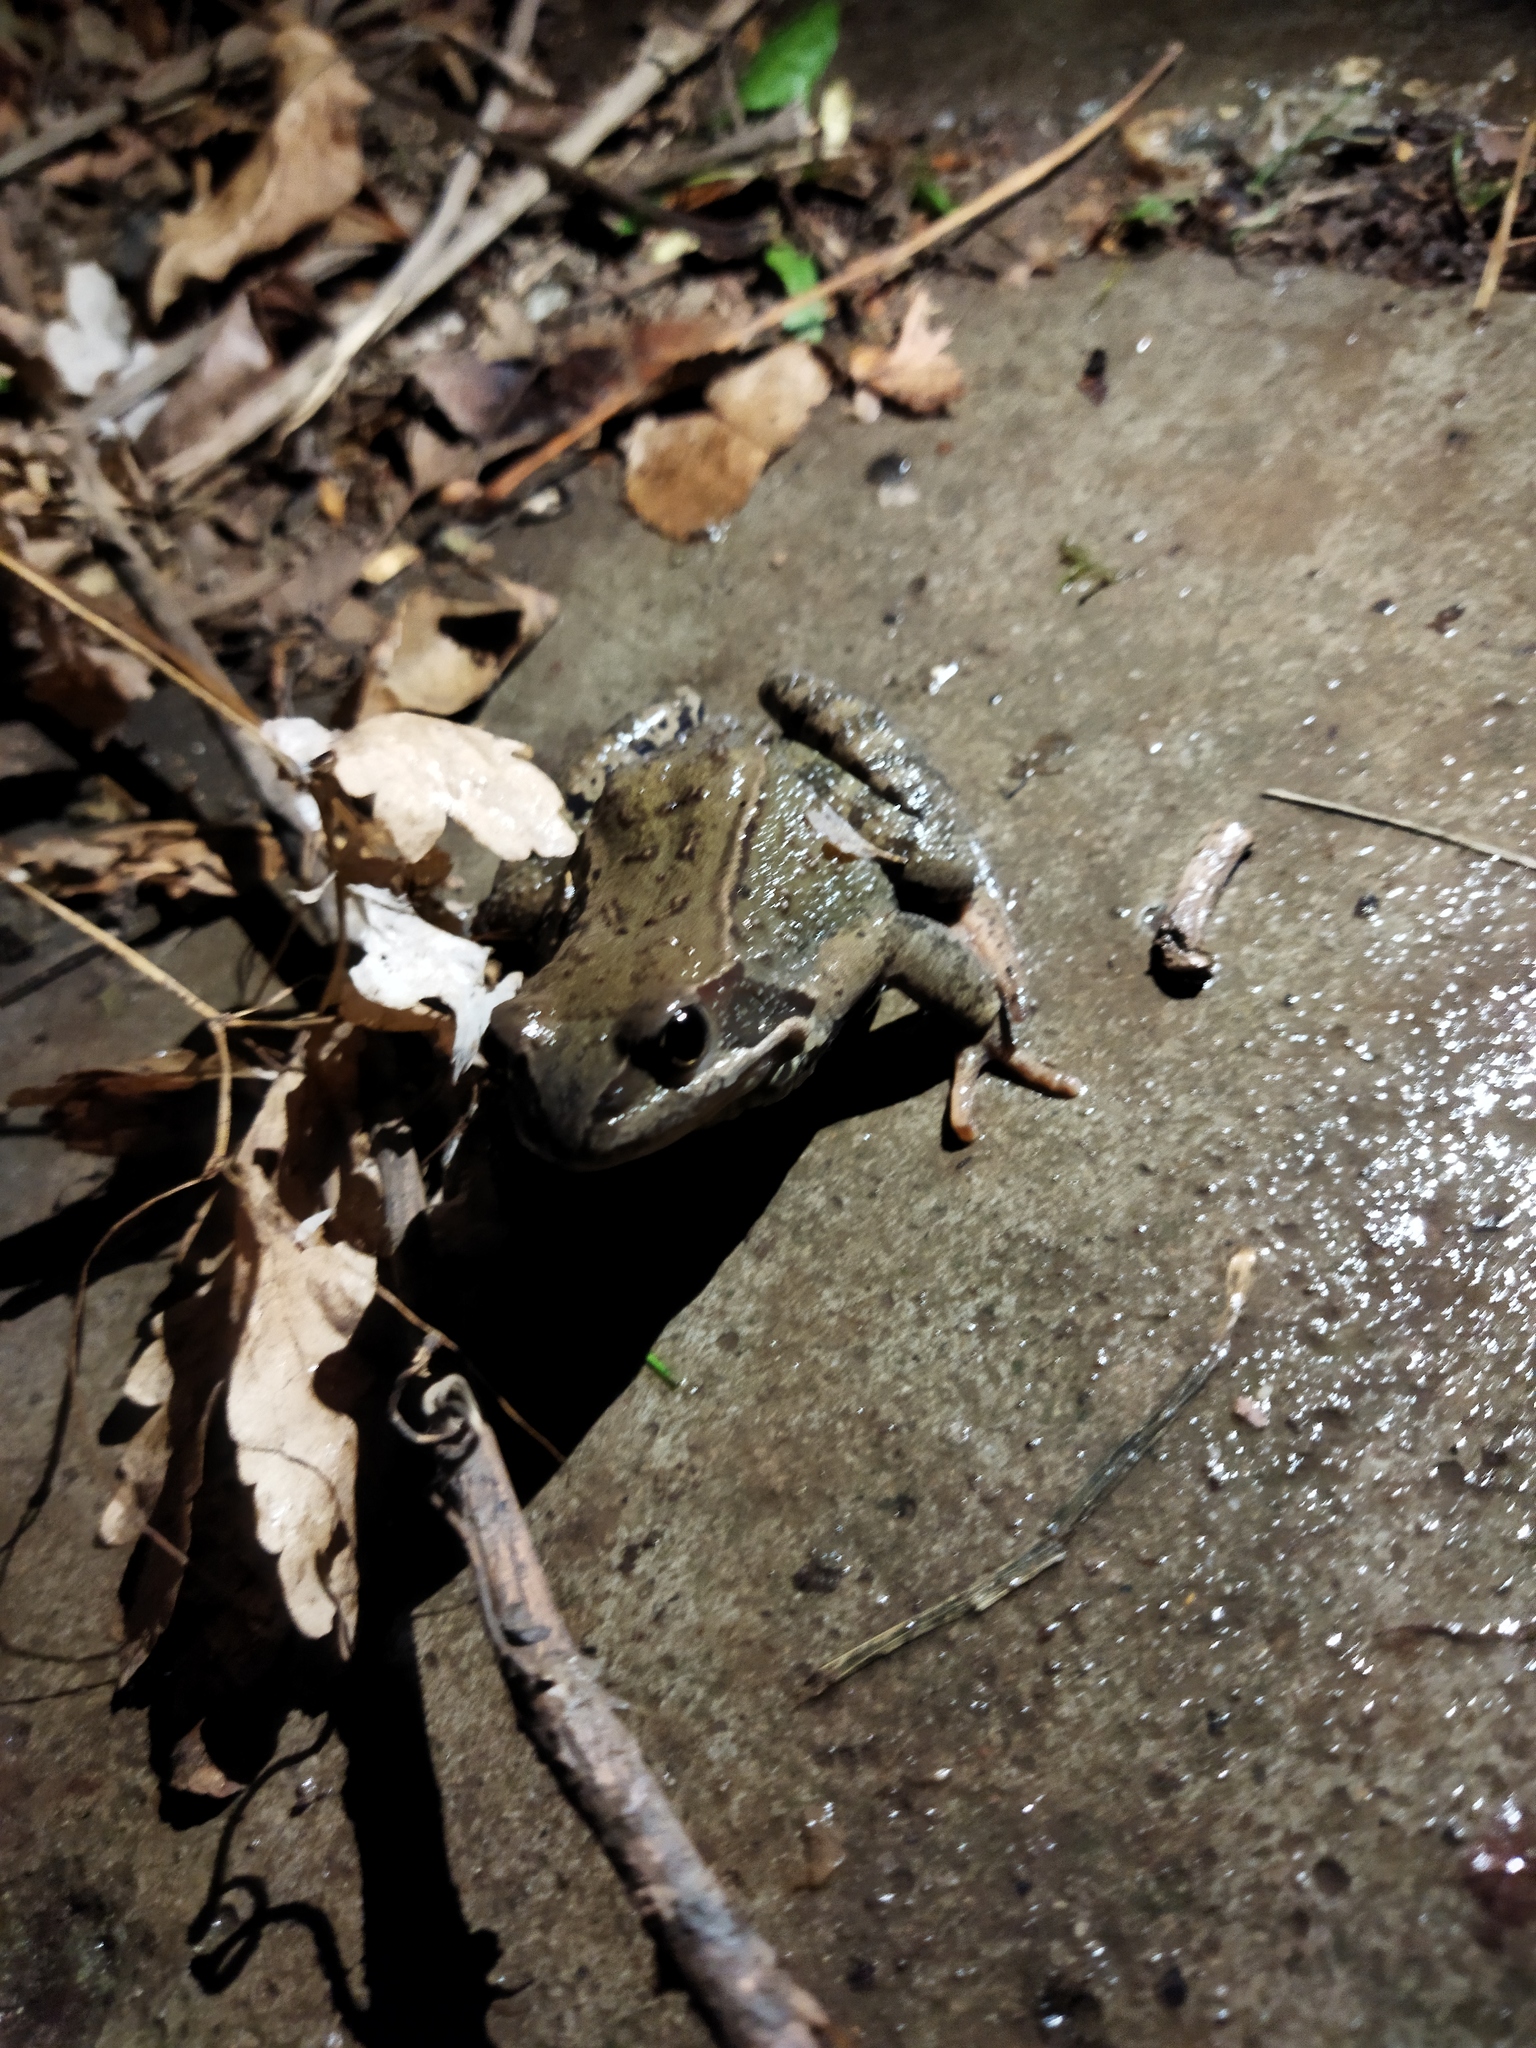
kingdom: Animalia
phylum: Chordata
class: Amphibia
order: Anura
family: Ranidae
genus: Rana
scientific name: Rana temporaria
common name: Common frog
